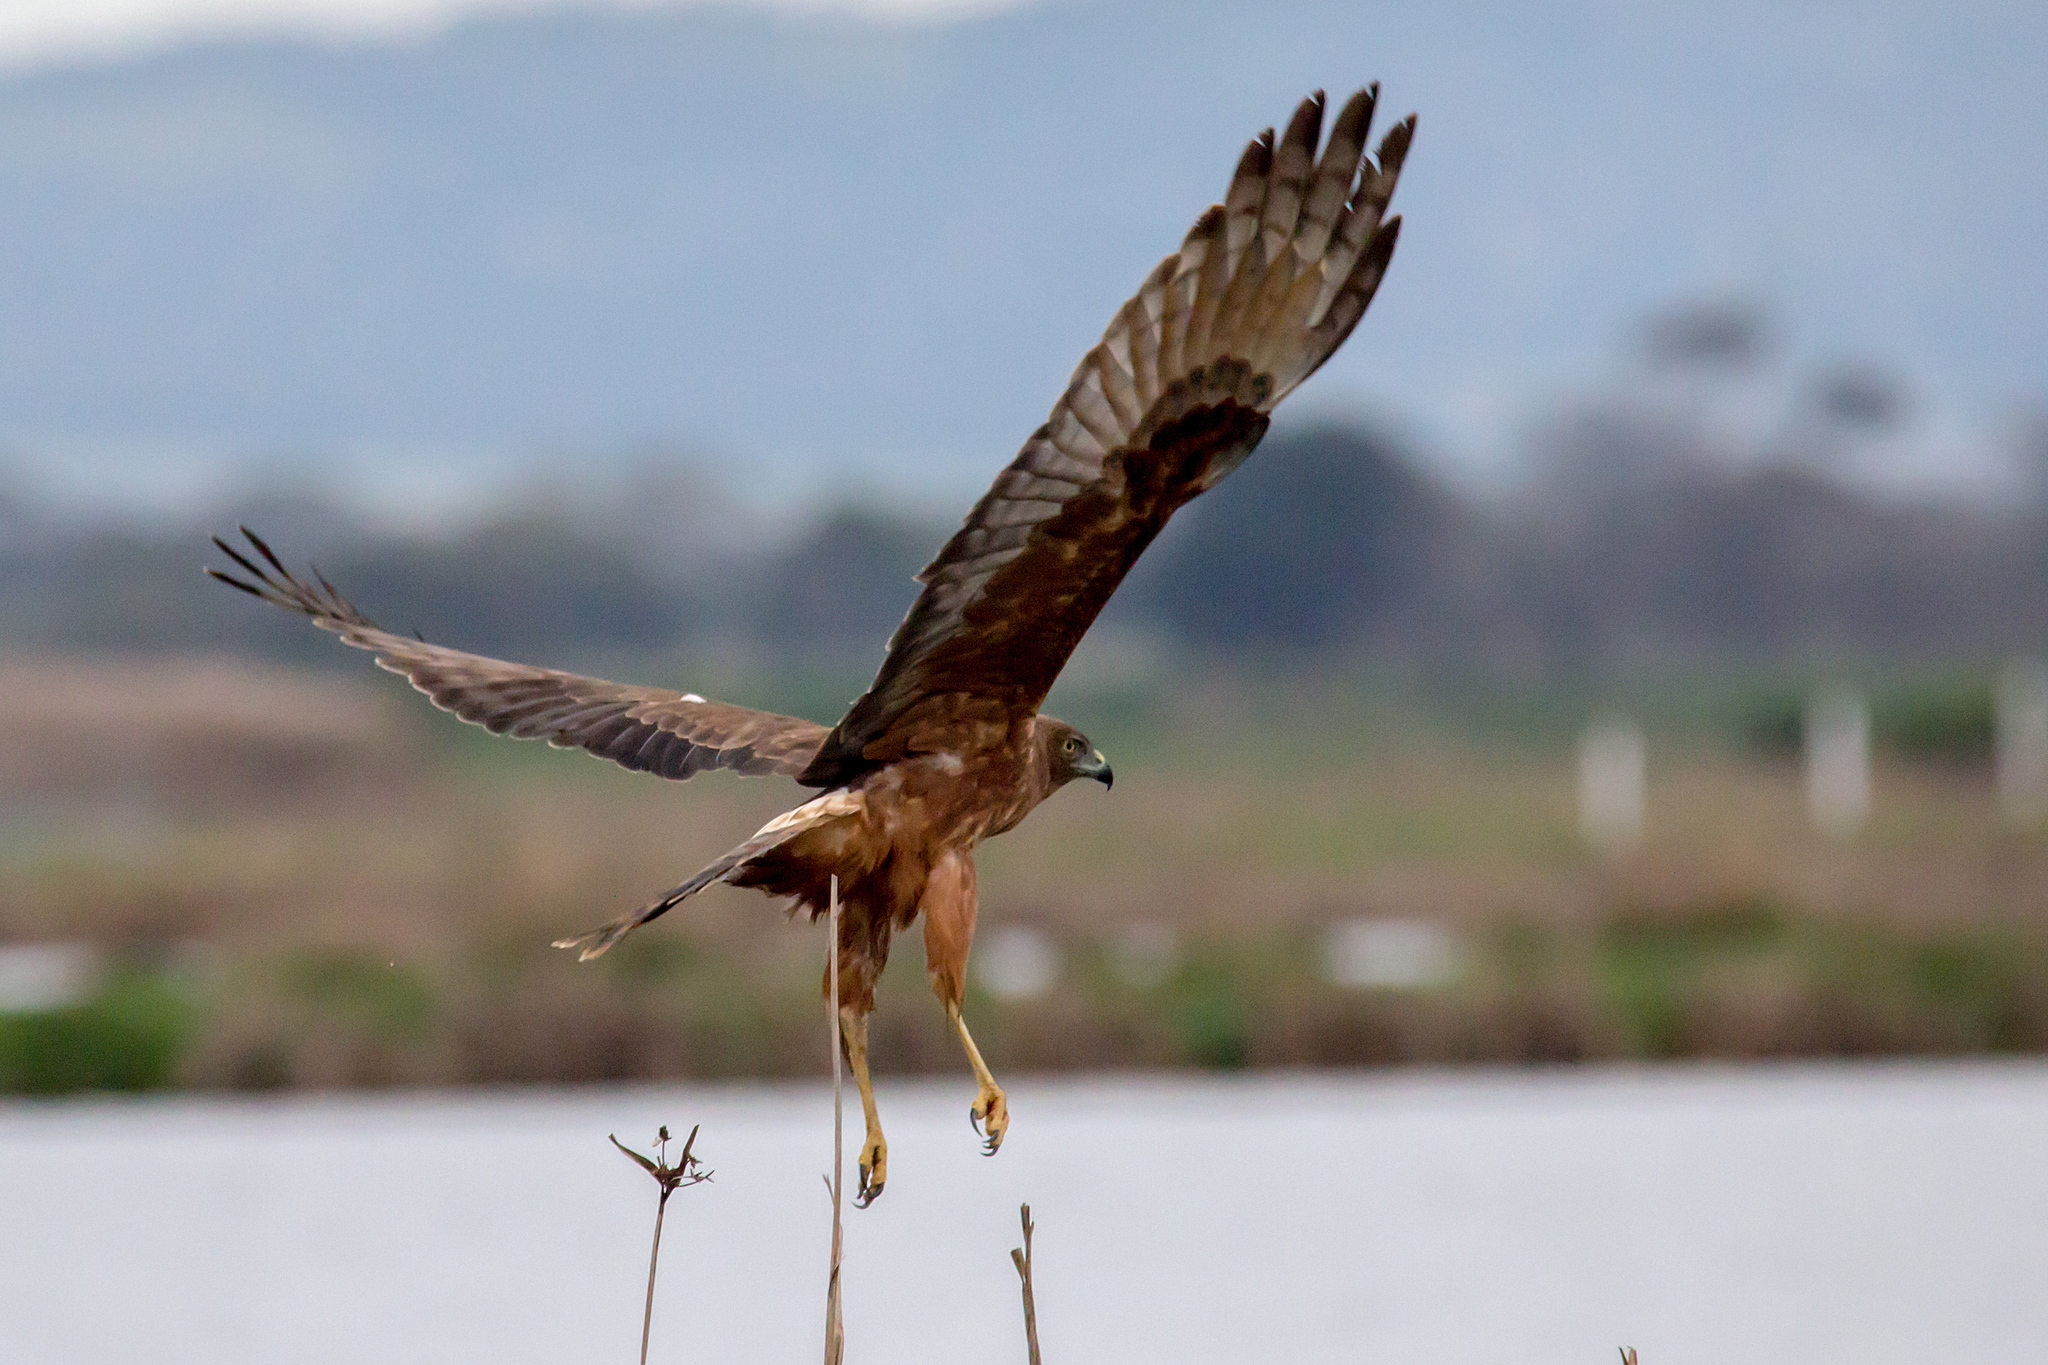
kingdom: Animalia
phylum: Chordata
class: Aves
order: Accipitriformes
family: Accipitridae
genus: Circus
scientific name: Circus approximans
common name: Swamp harrier
